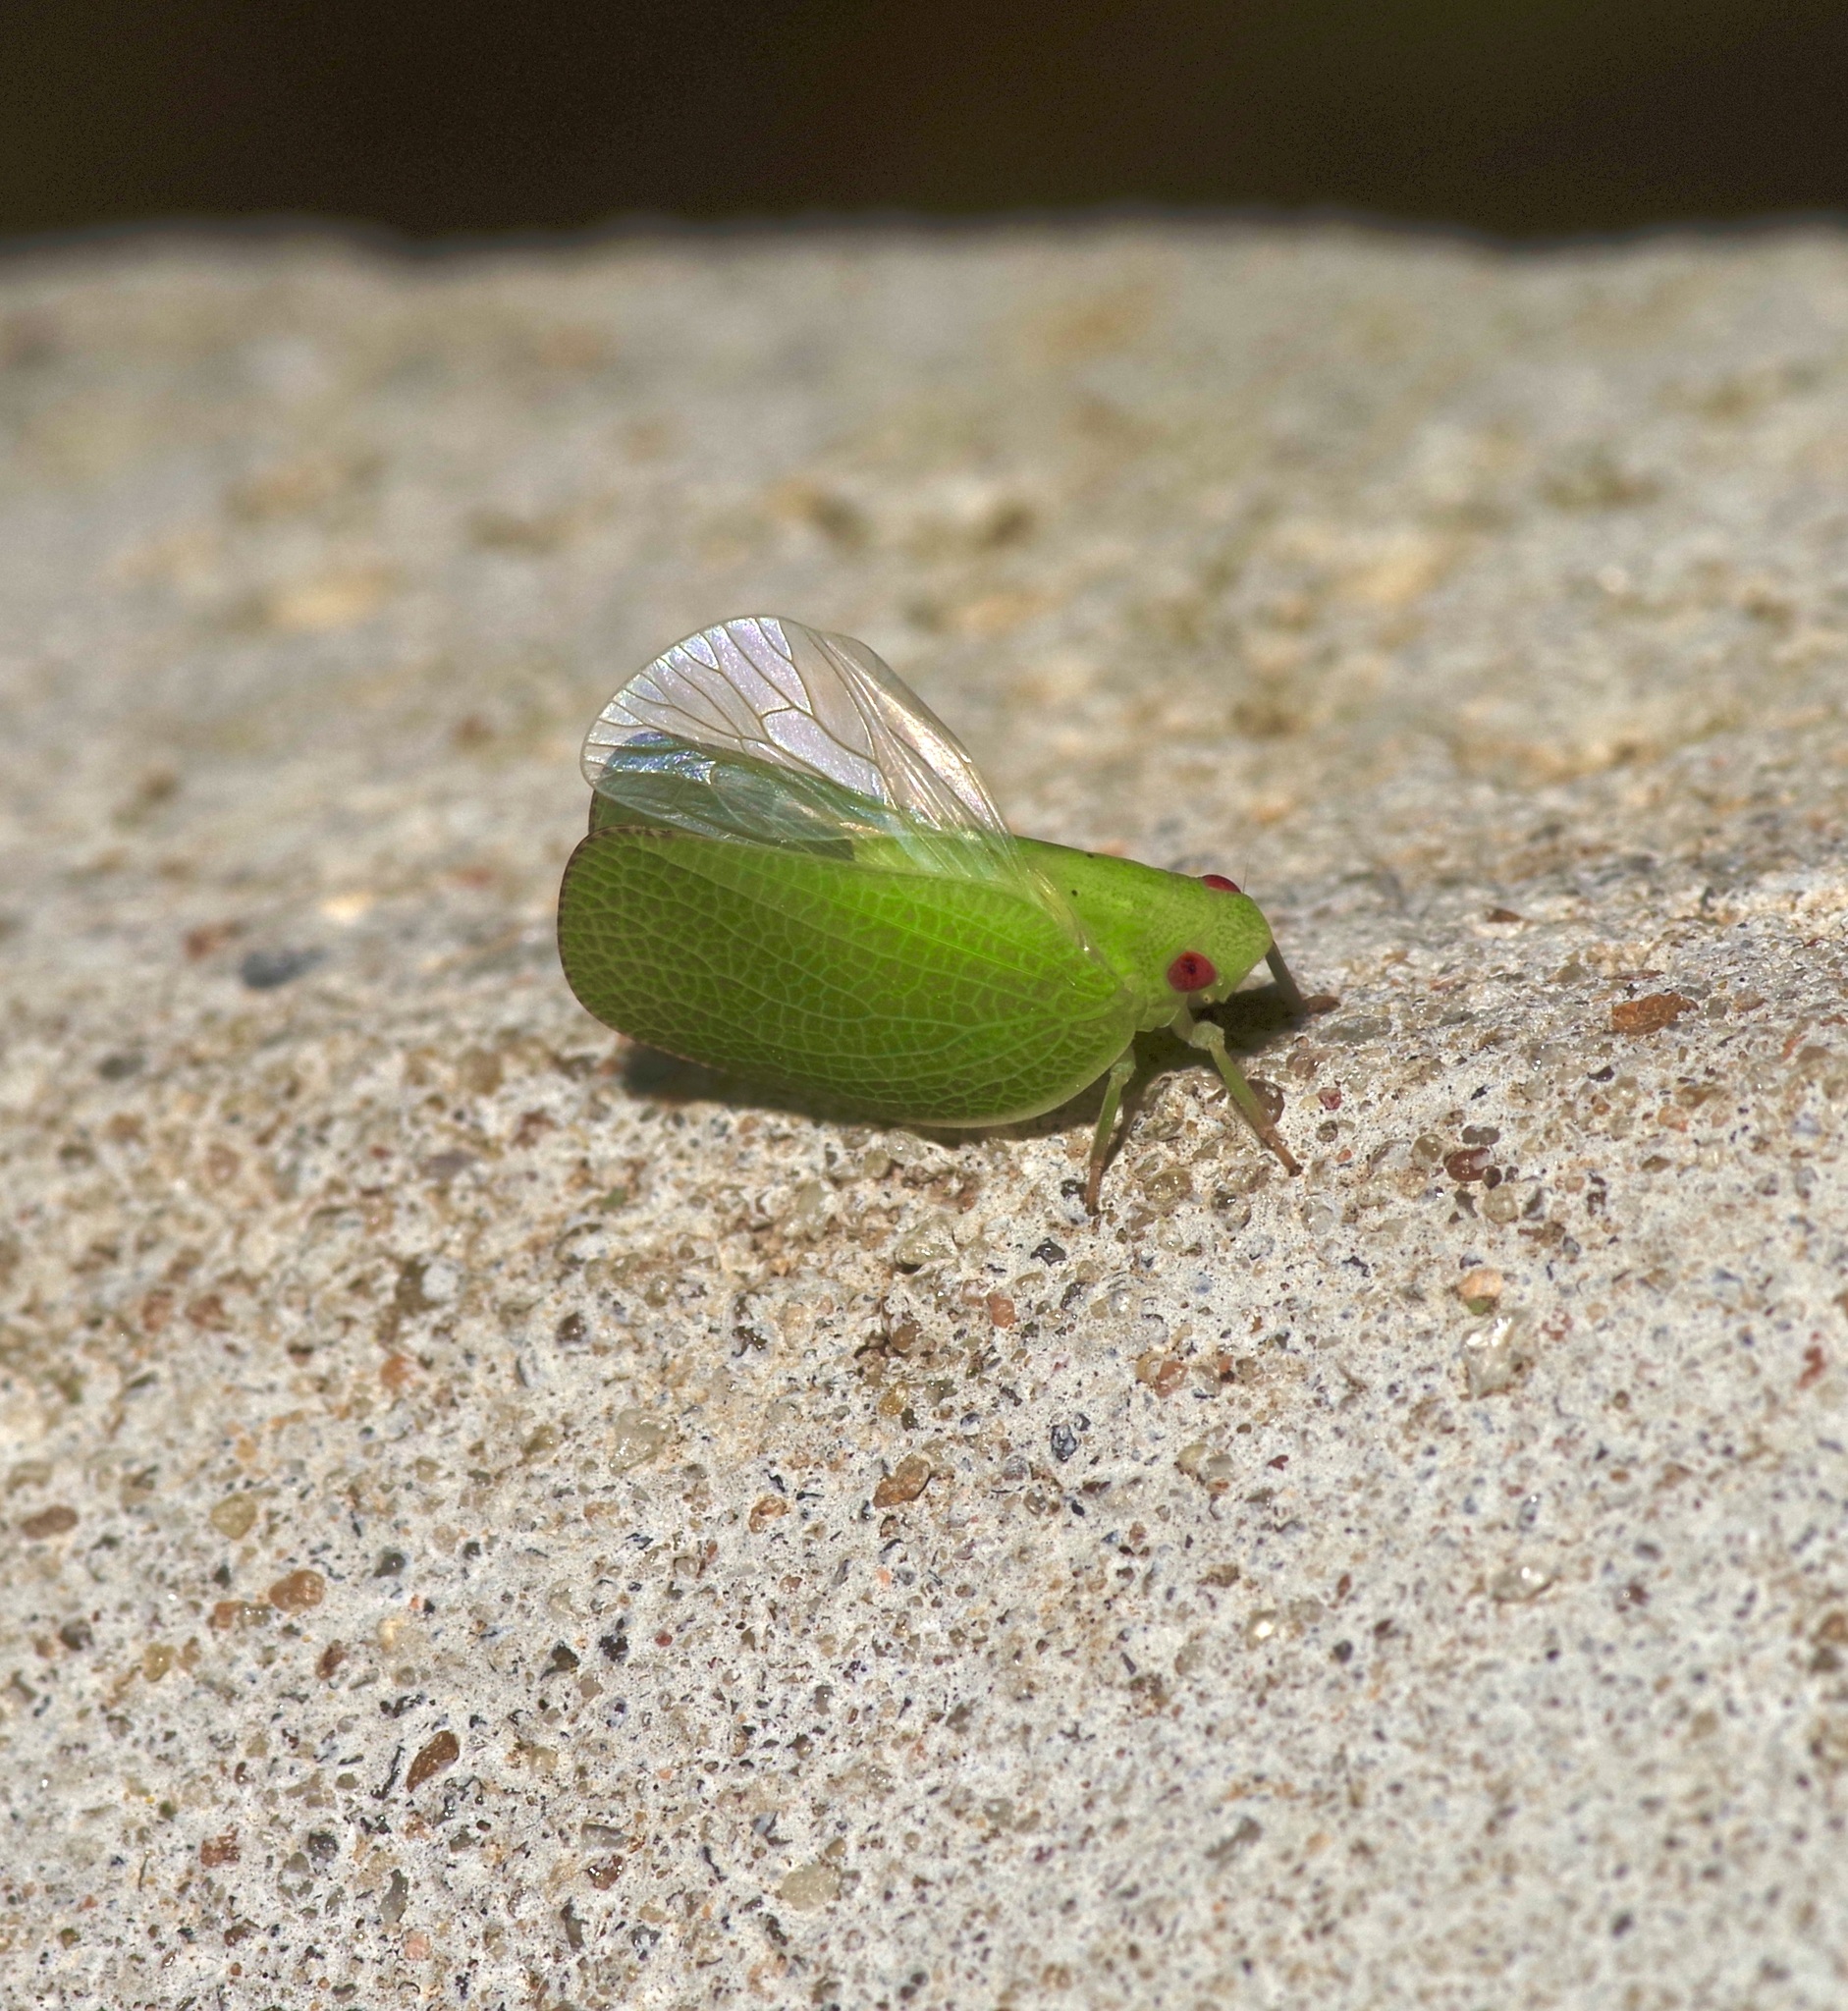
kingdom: Animalia
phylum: Arthropoda
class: Insecta
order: Hemiptera
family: Acanaloniidae
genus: Acanalonia
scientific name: Acanalonia conica
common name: Green cone-headed planthopper
